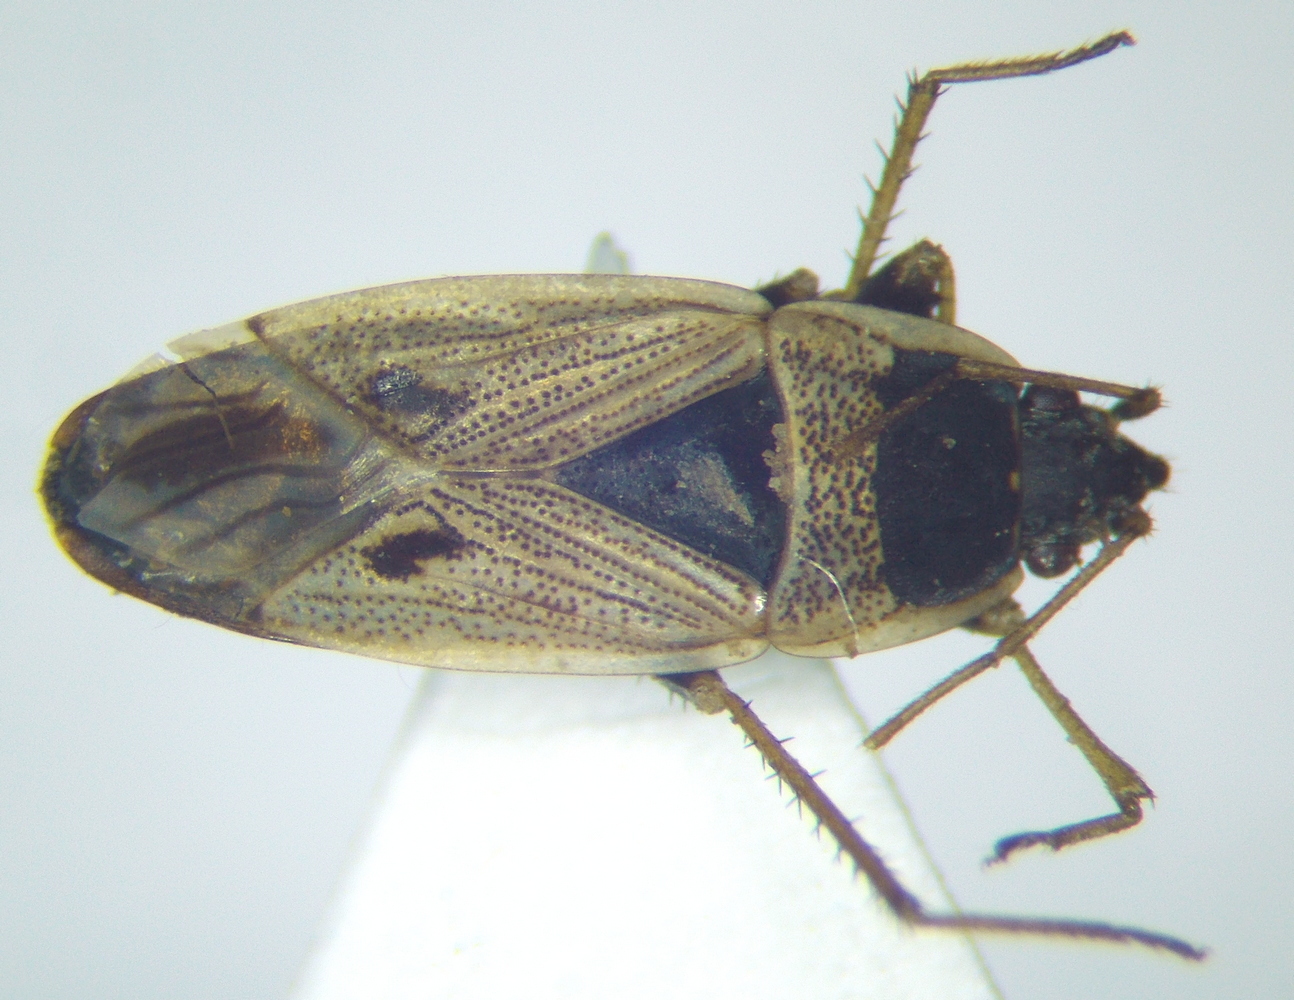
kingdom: Animalia
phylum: Arthropoda
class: Insecta
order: Hemiptera
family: Rhyparochromidae
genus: Xanthochilus
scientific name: Xanthochilus omissus
